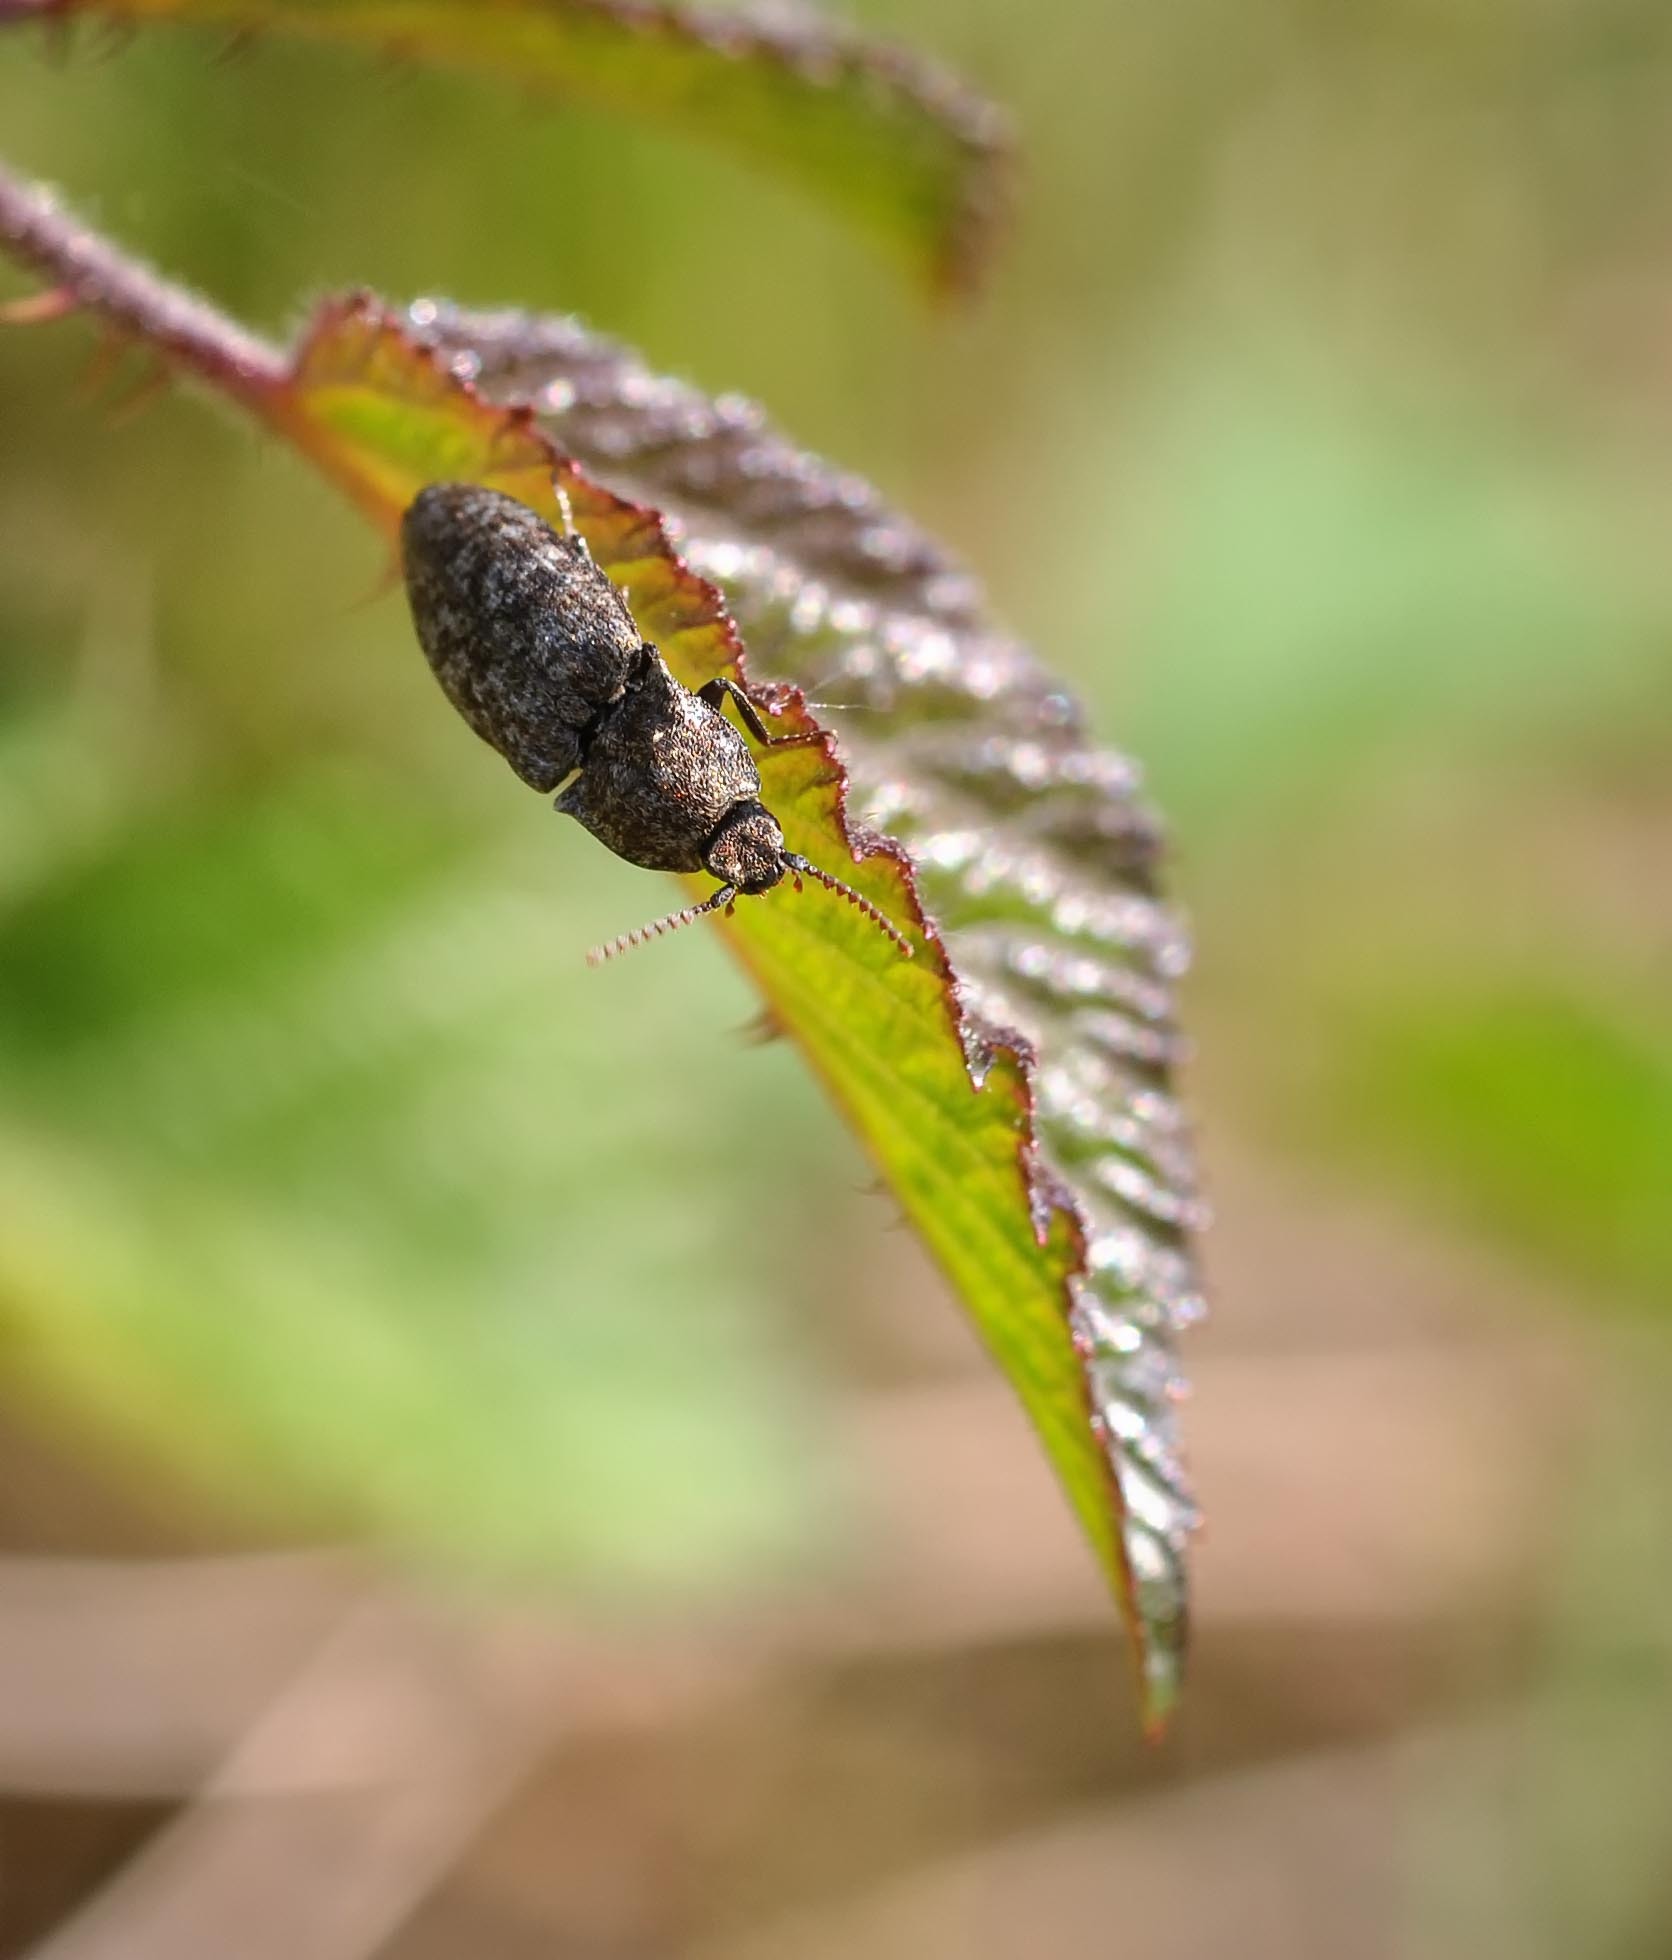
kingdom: Animalia
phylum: Arthropoda
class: Insecta
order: Coleoptera
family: Elateridae
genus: Agrypnus
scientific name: Agrypnus murinus
